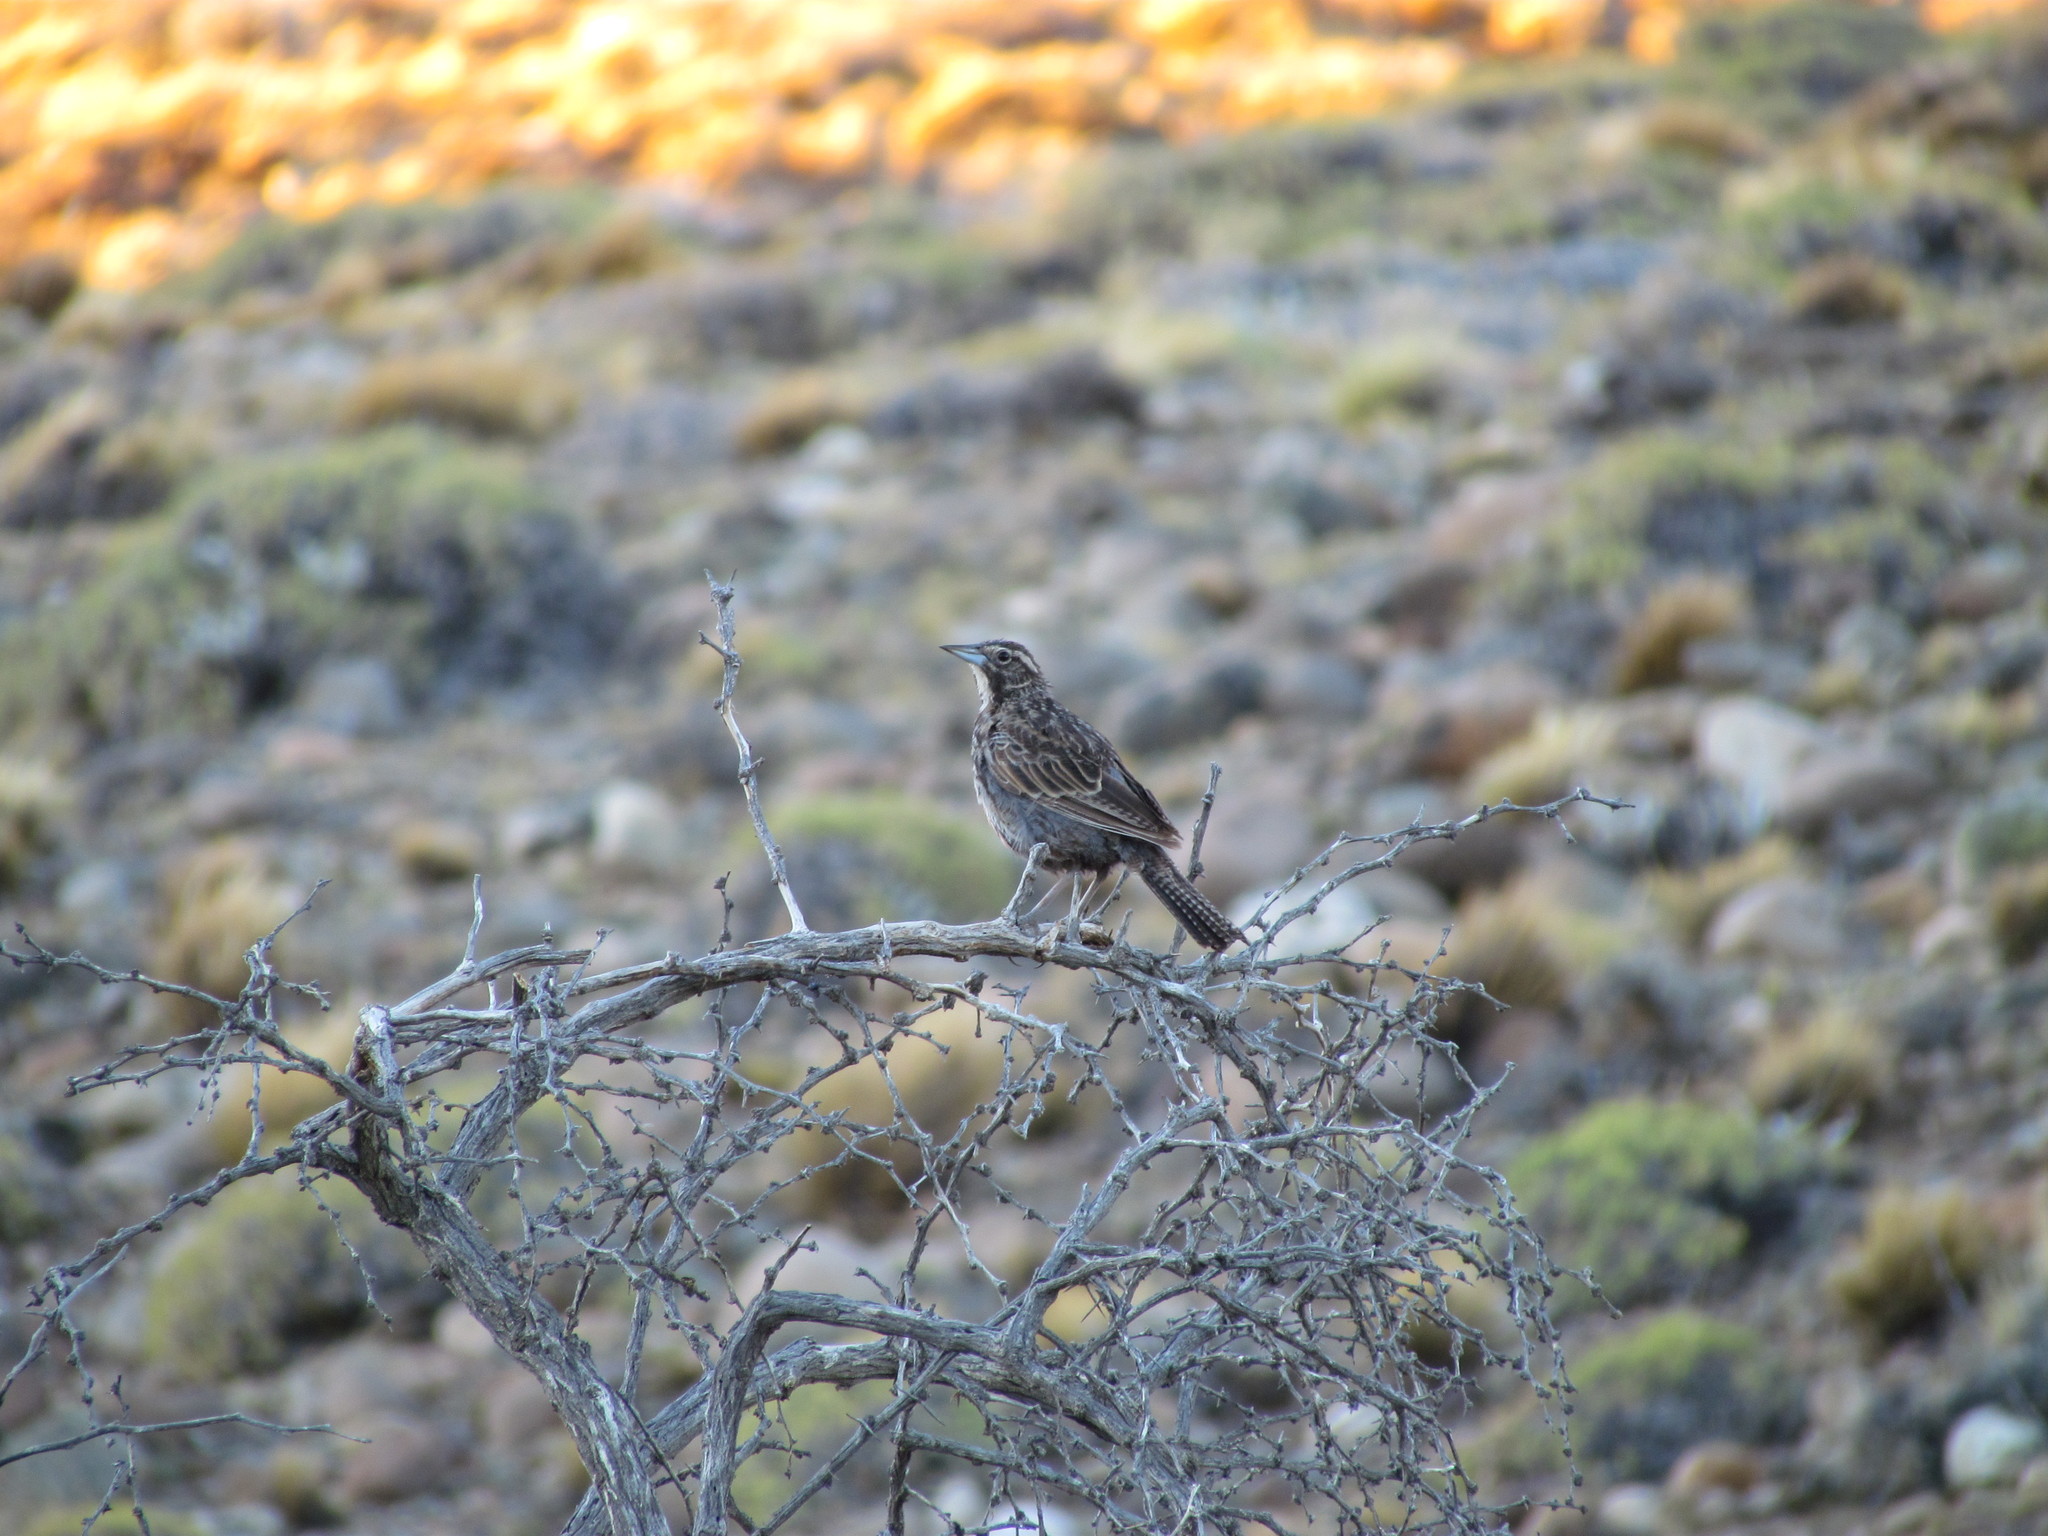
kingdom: Animalia
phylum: Chordata
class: Aves
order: Passeriformes
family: Icteridae
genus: Sturnella
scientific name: Sturnella loyca
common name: Long-tailed meadowlark
